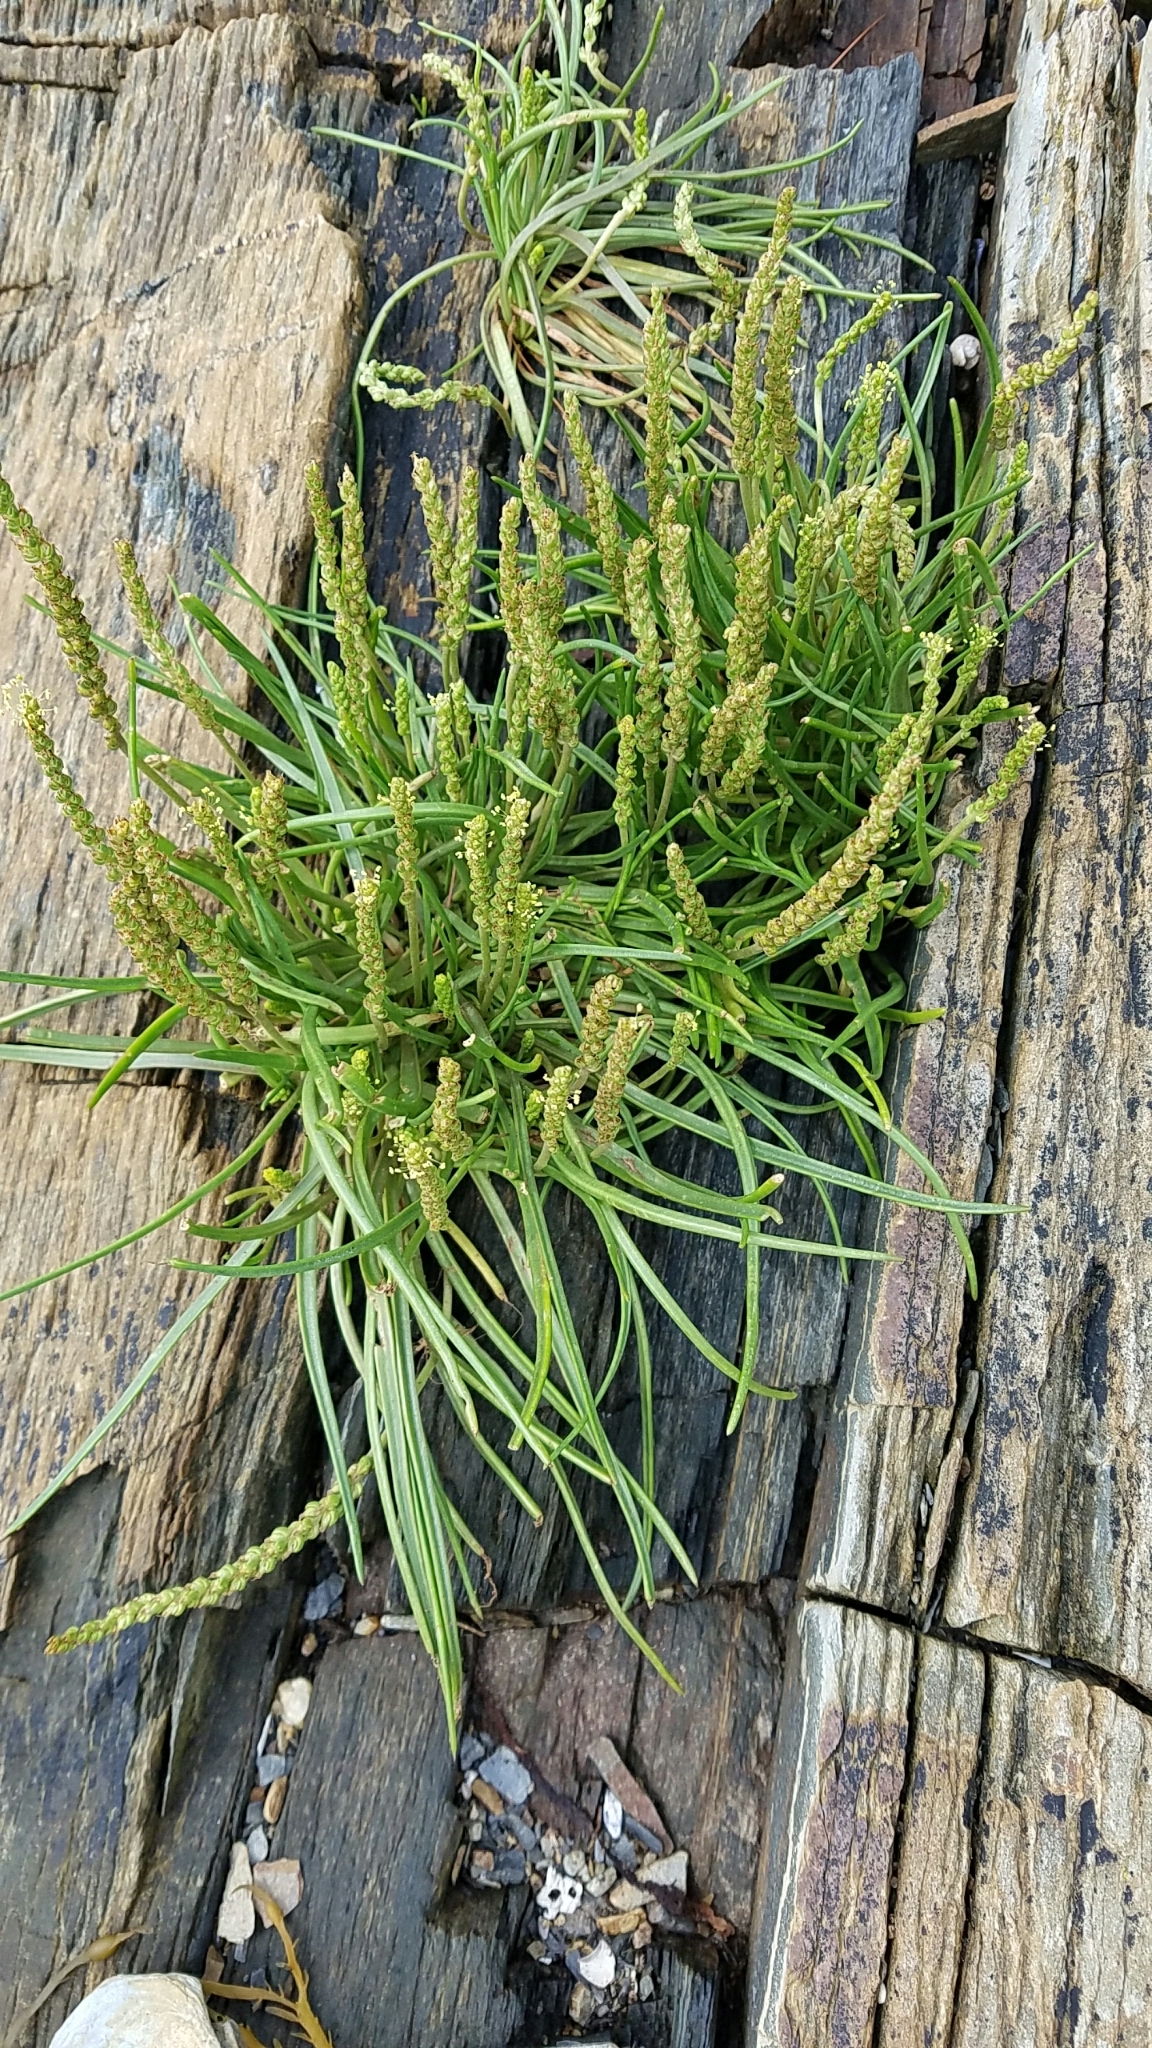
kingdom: Plantae
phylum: Tracheophyta
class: Magnoliopsida
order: Lamiales
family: Plantaginaceae
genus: Plantago
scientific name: Plantago maritima
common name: Sea plantain
